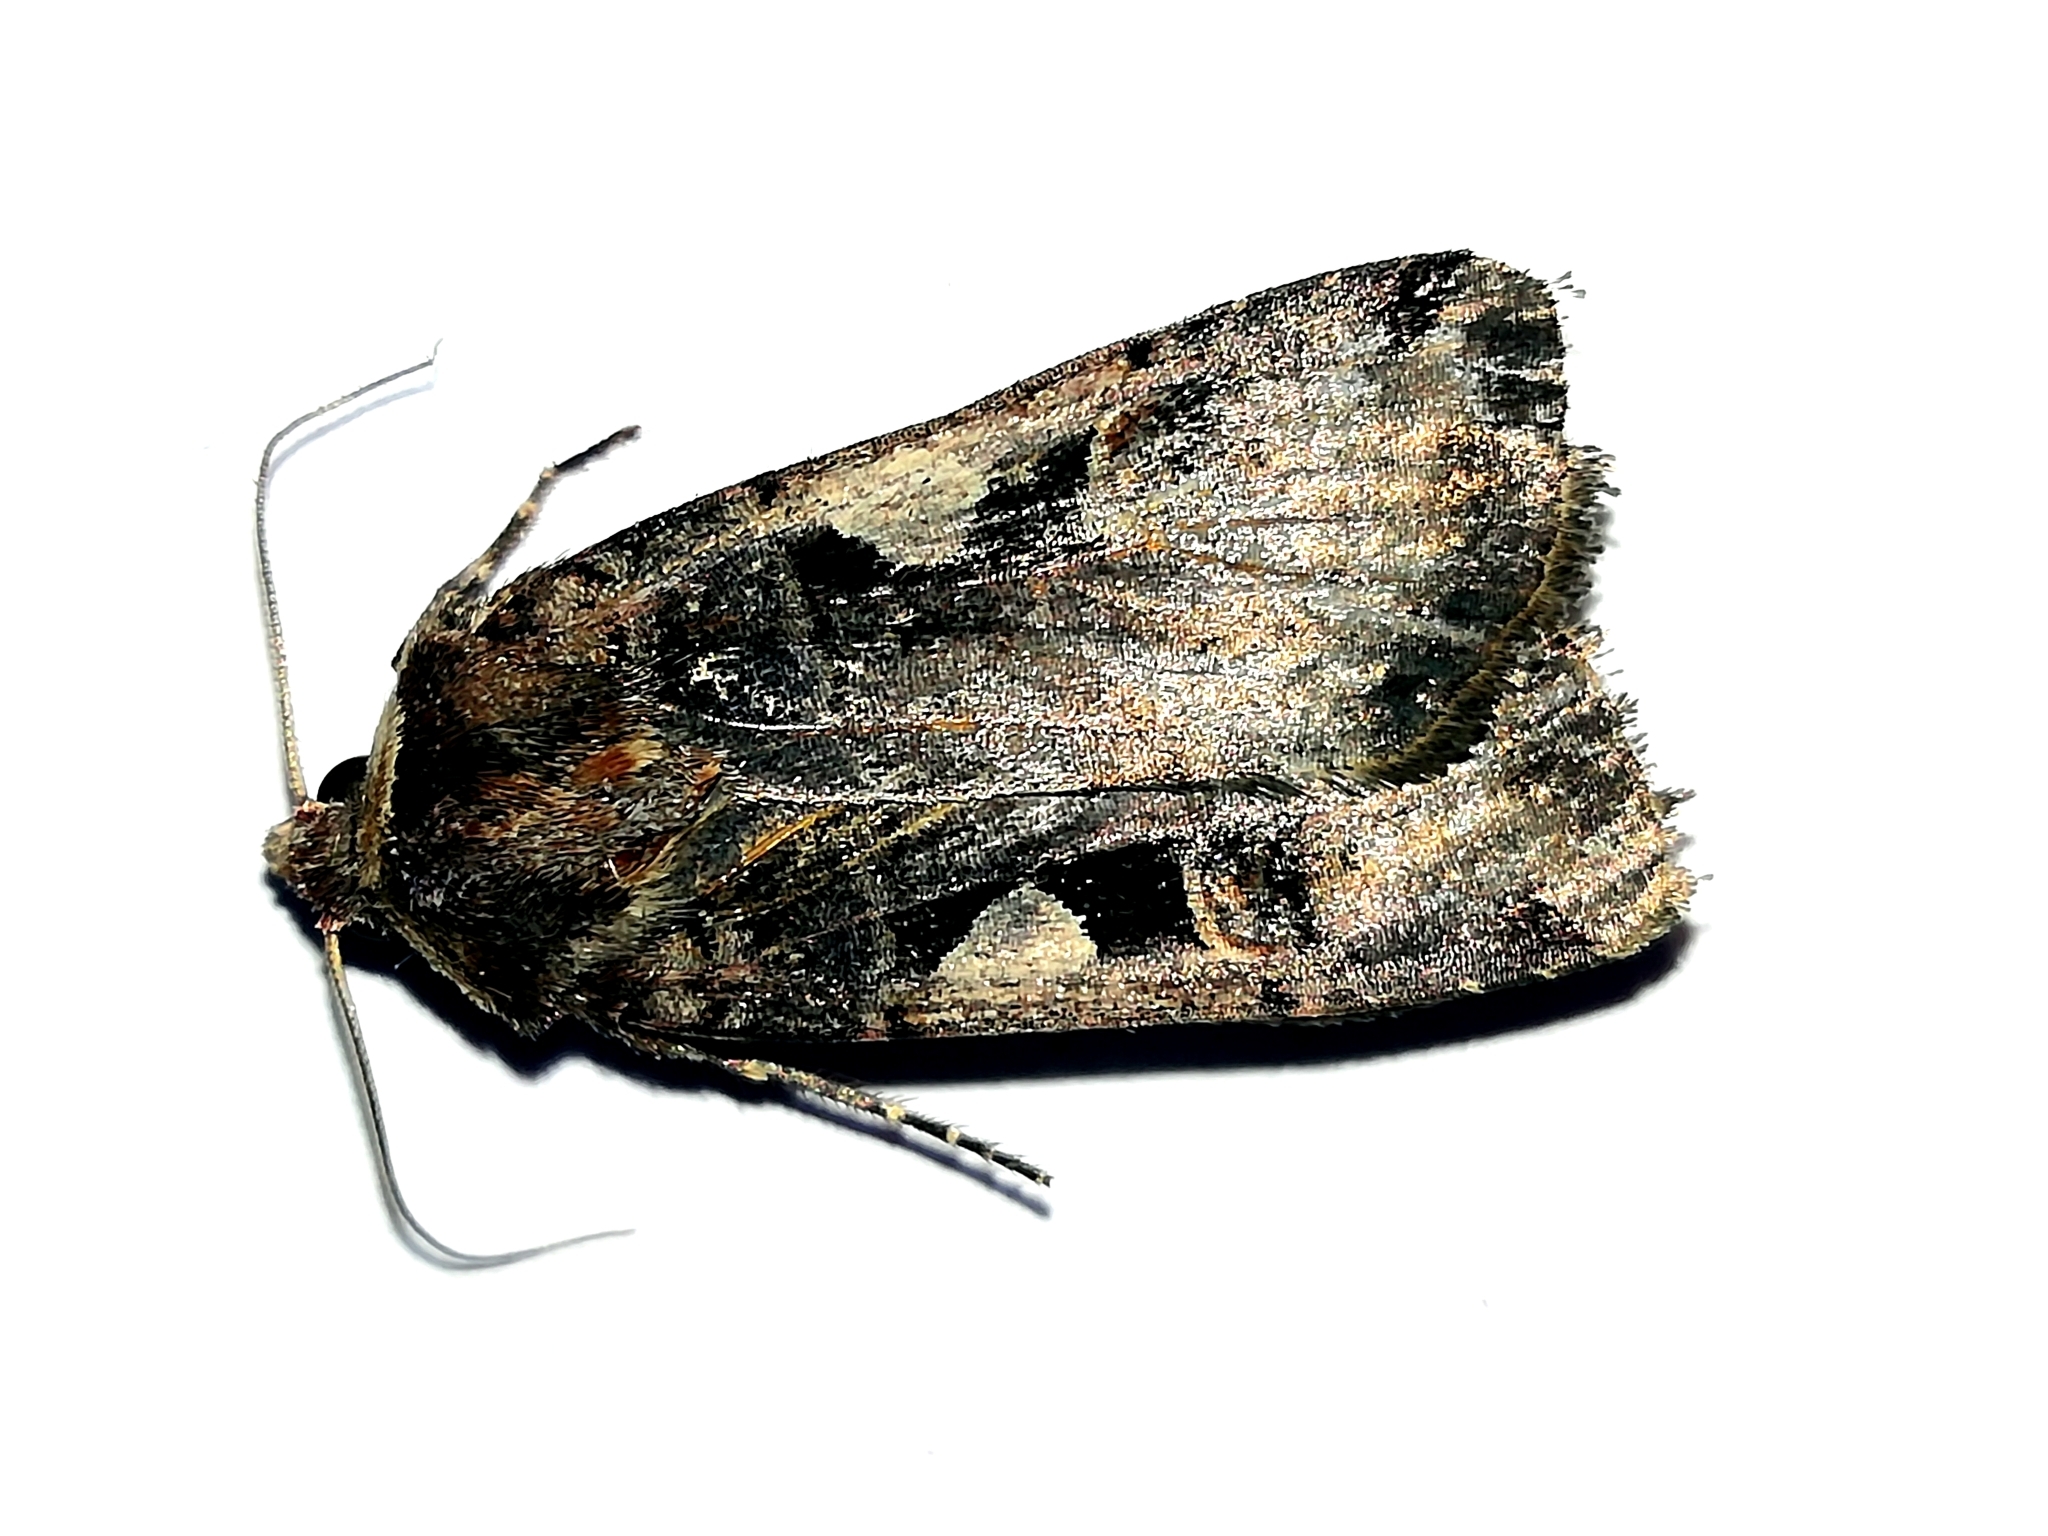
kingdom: Animalia
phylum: Arthropoda
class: Insecta
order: Lepidoptera
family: Noctuidae
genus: Xestia
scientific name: Xestia c-nigrum
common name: Setaceous hebrew character
